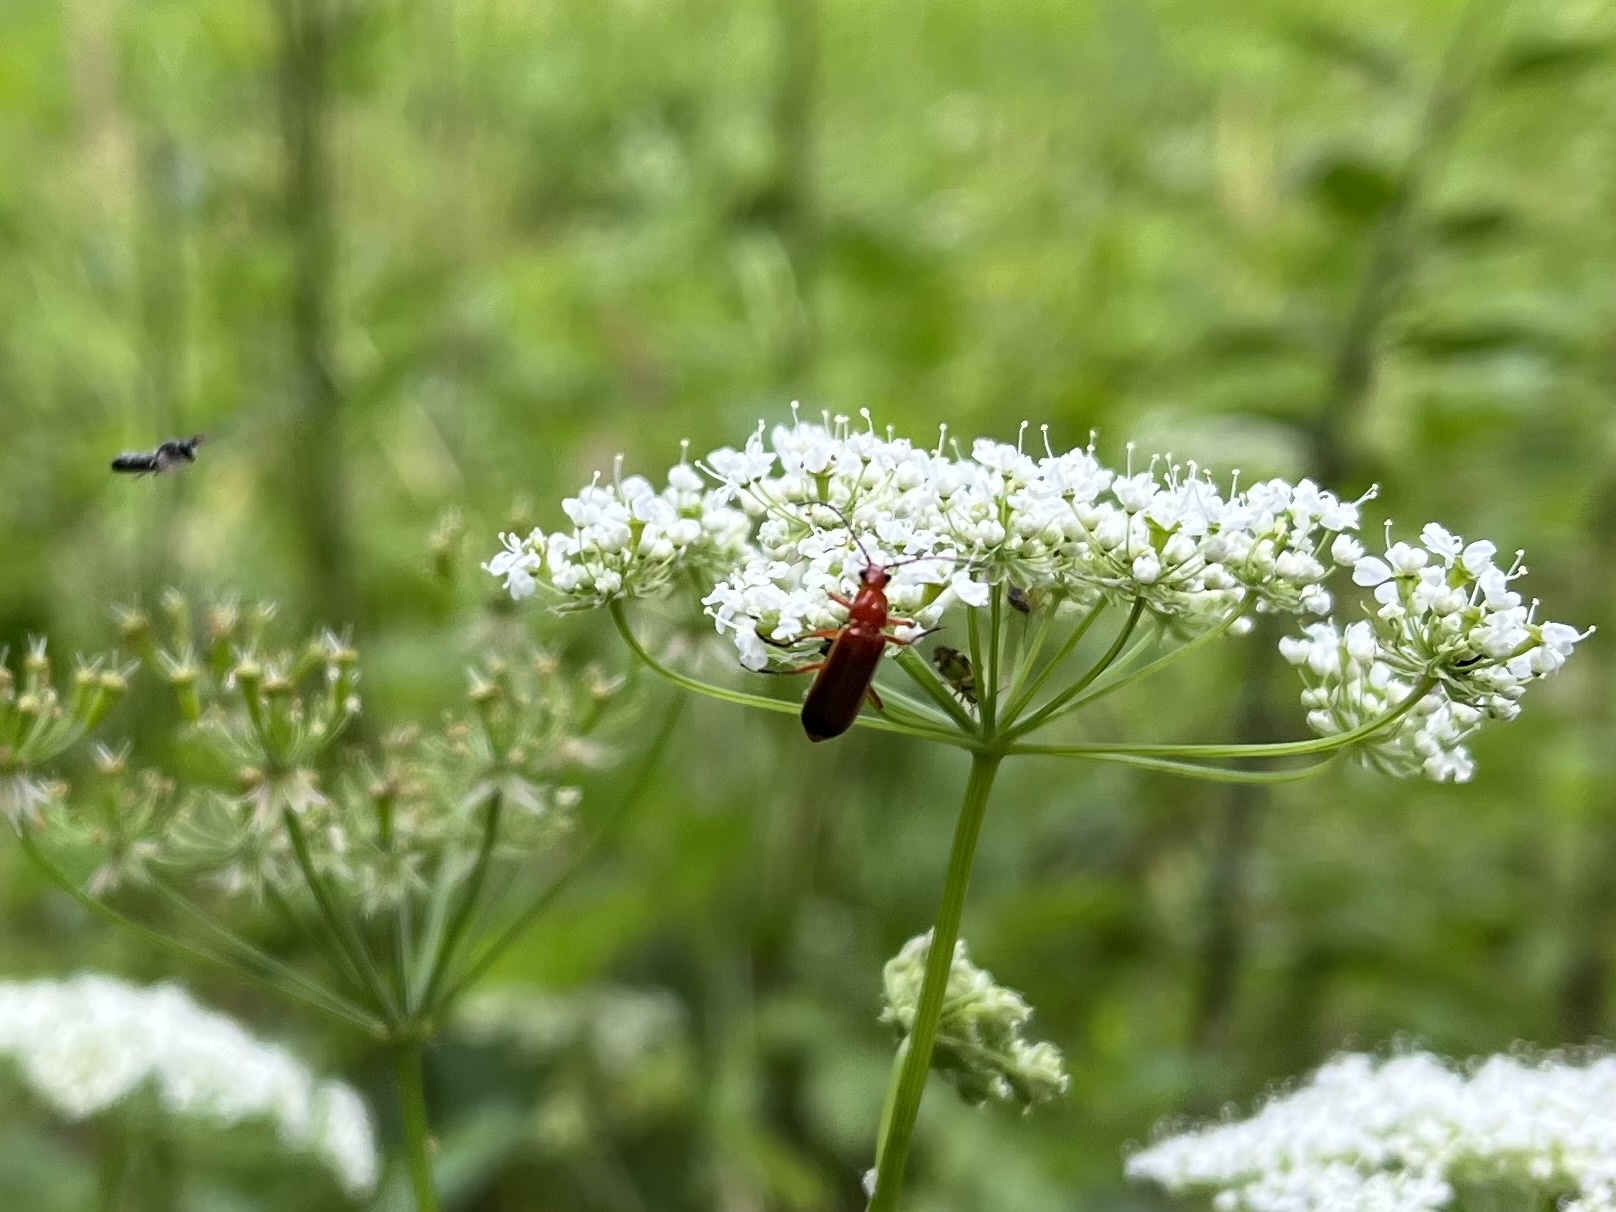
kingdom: Animalia
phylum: Arthropoda
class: Insecta
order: Coleoptera
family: Cantharidae
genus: Rhagonycha
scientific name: Rhagonycha fulva
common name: Common red soldier beetle
